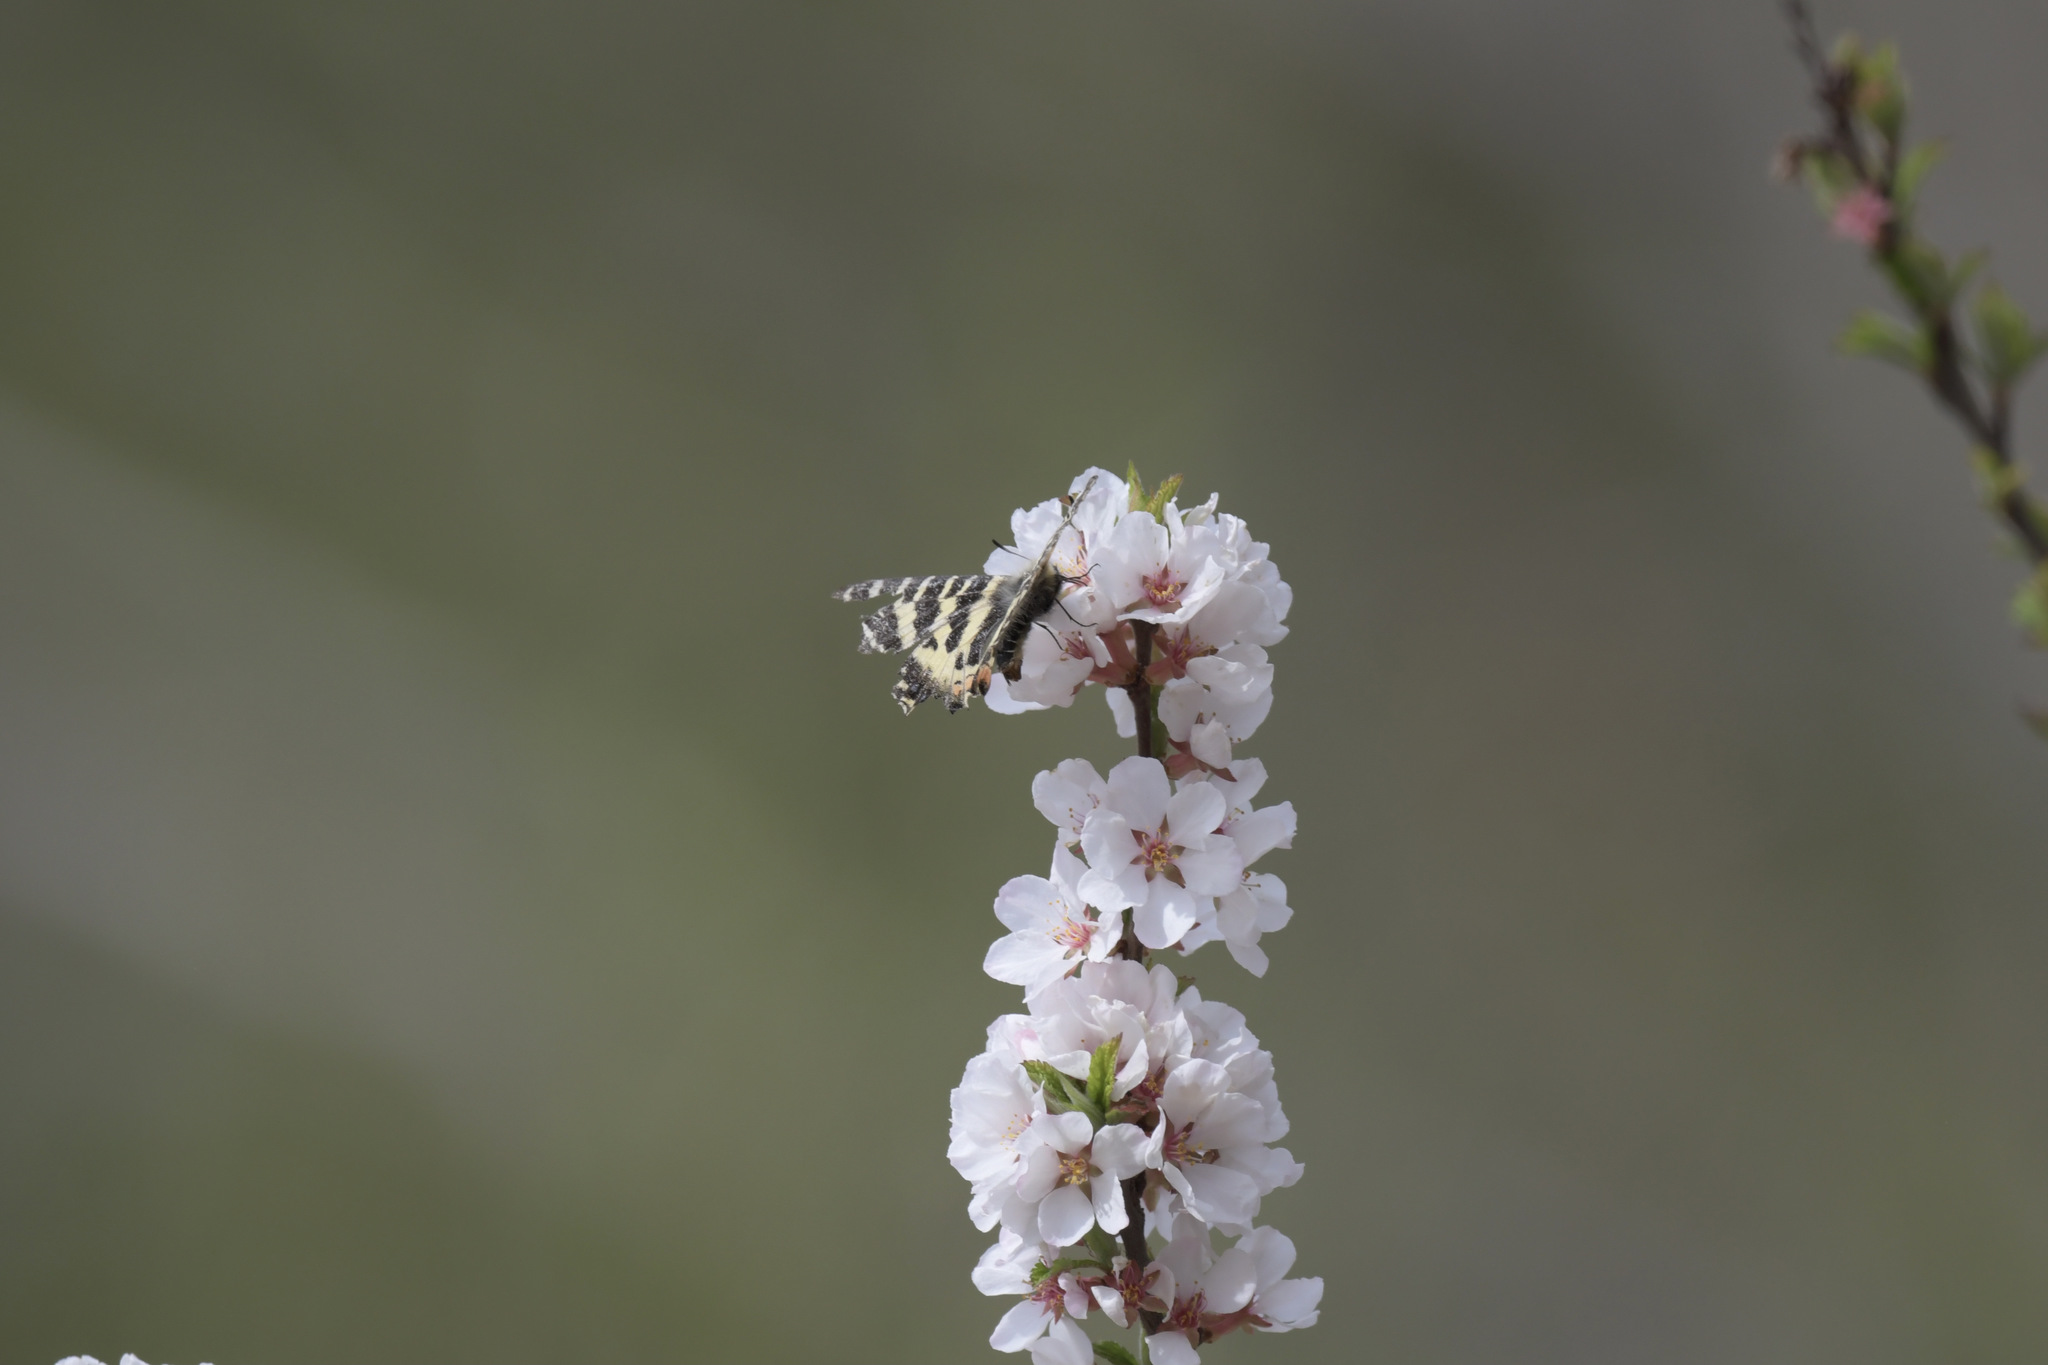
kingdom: Animalia
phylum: Arthropoda
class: Insecta
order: Lepidoptera
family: Papilionidae
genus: Luehdorfia
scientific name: Luehdorfia puziloi
